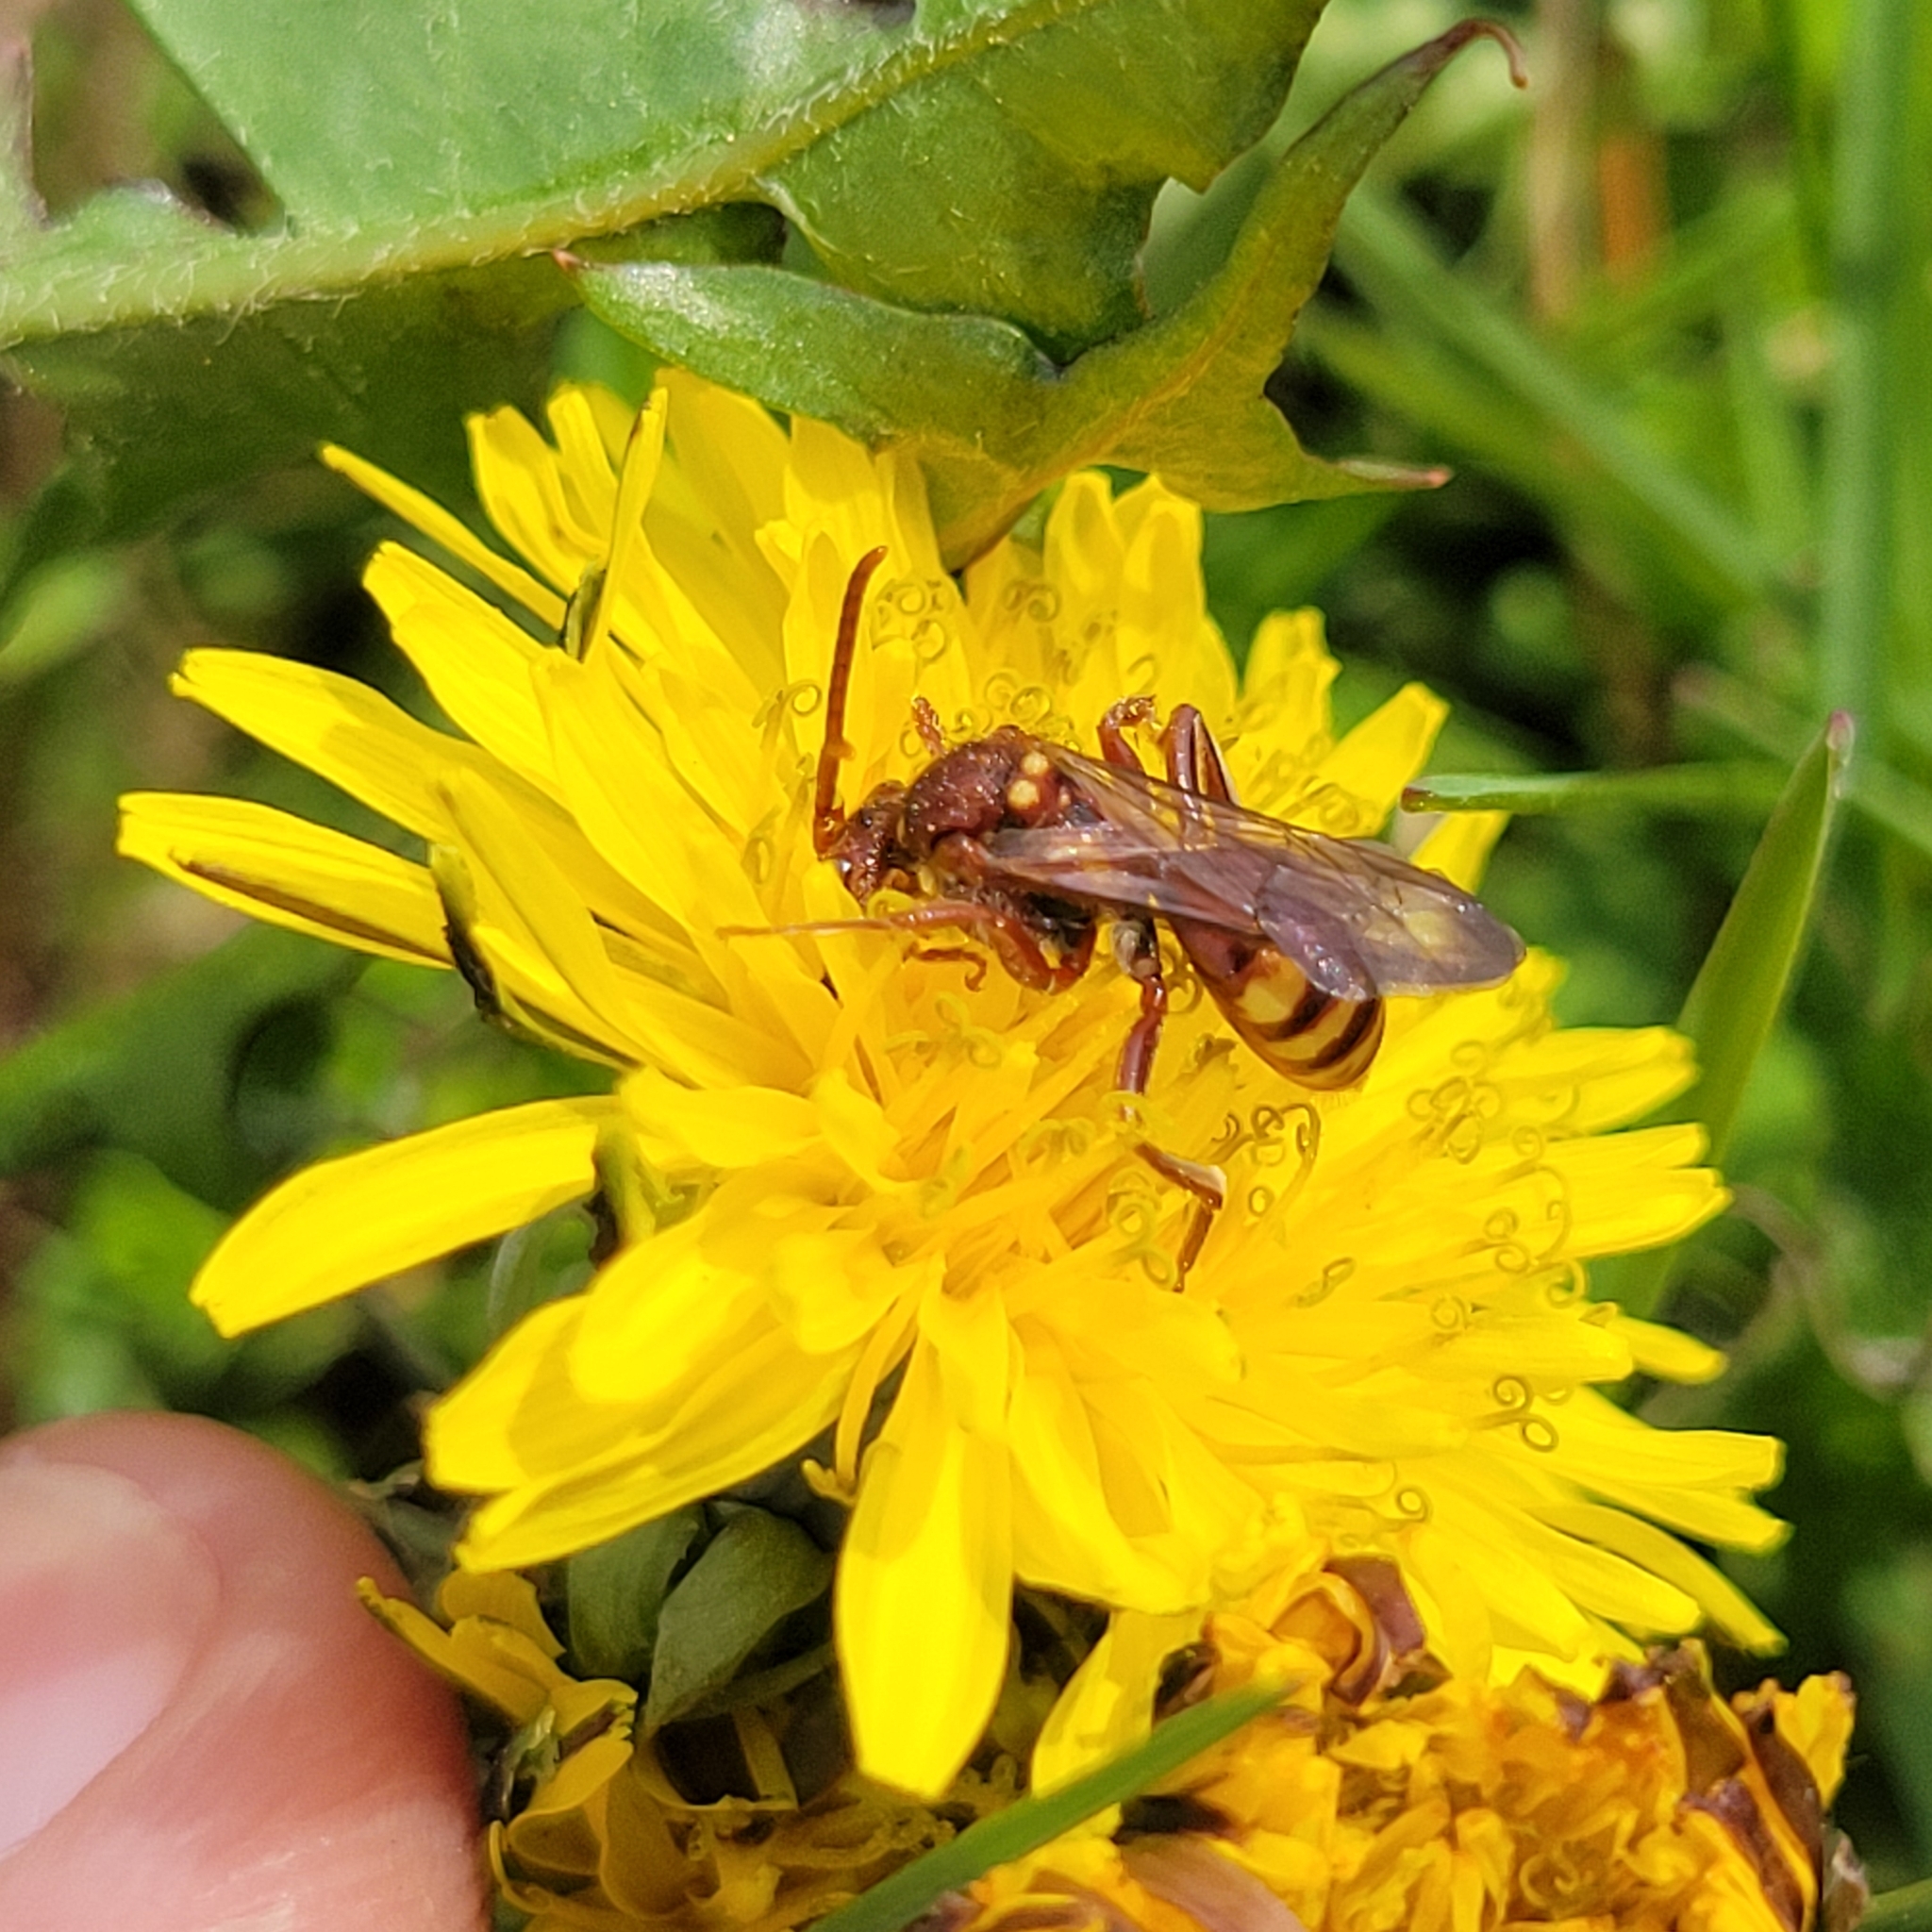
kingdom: Animalia
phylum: Arthropoda
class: Insecta
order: Hymenoptera
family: Apidae
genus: Nomada
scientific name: Nomada imbricata
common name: Imbricate cuckoo nomad bee
